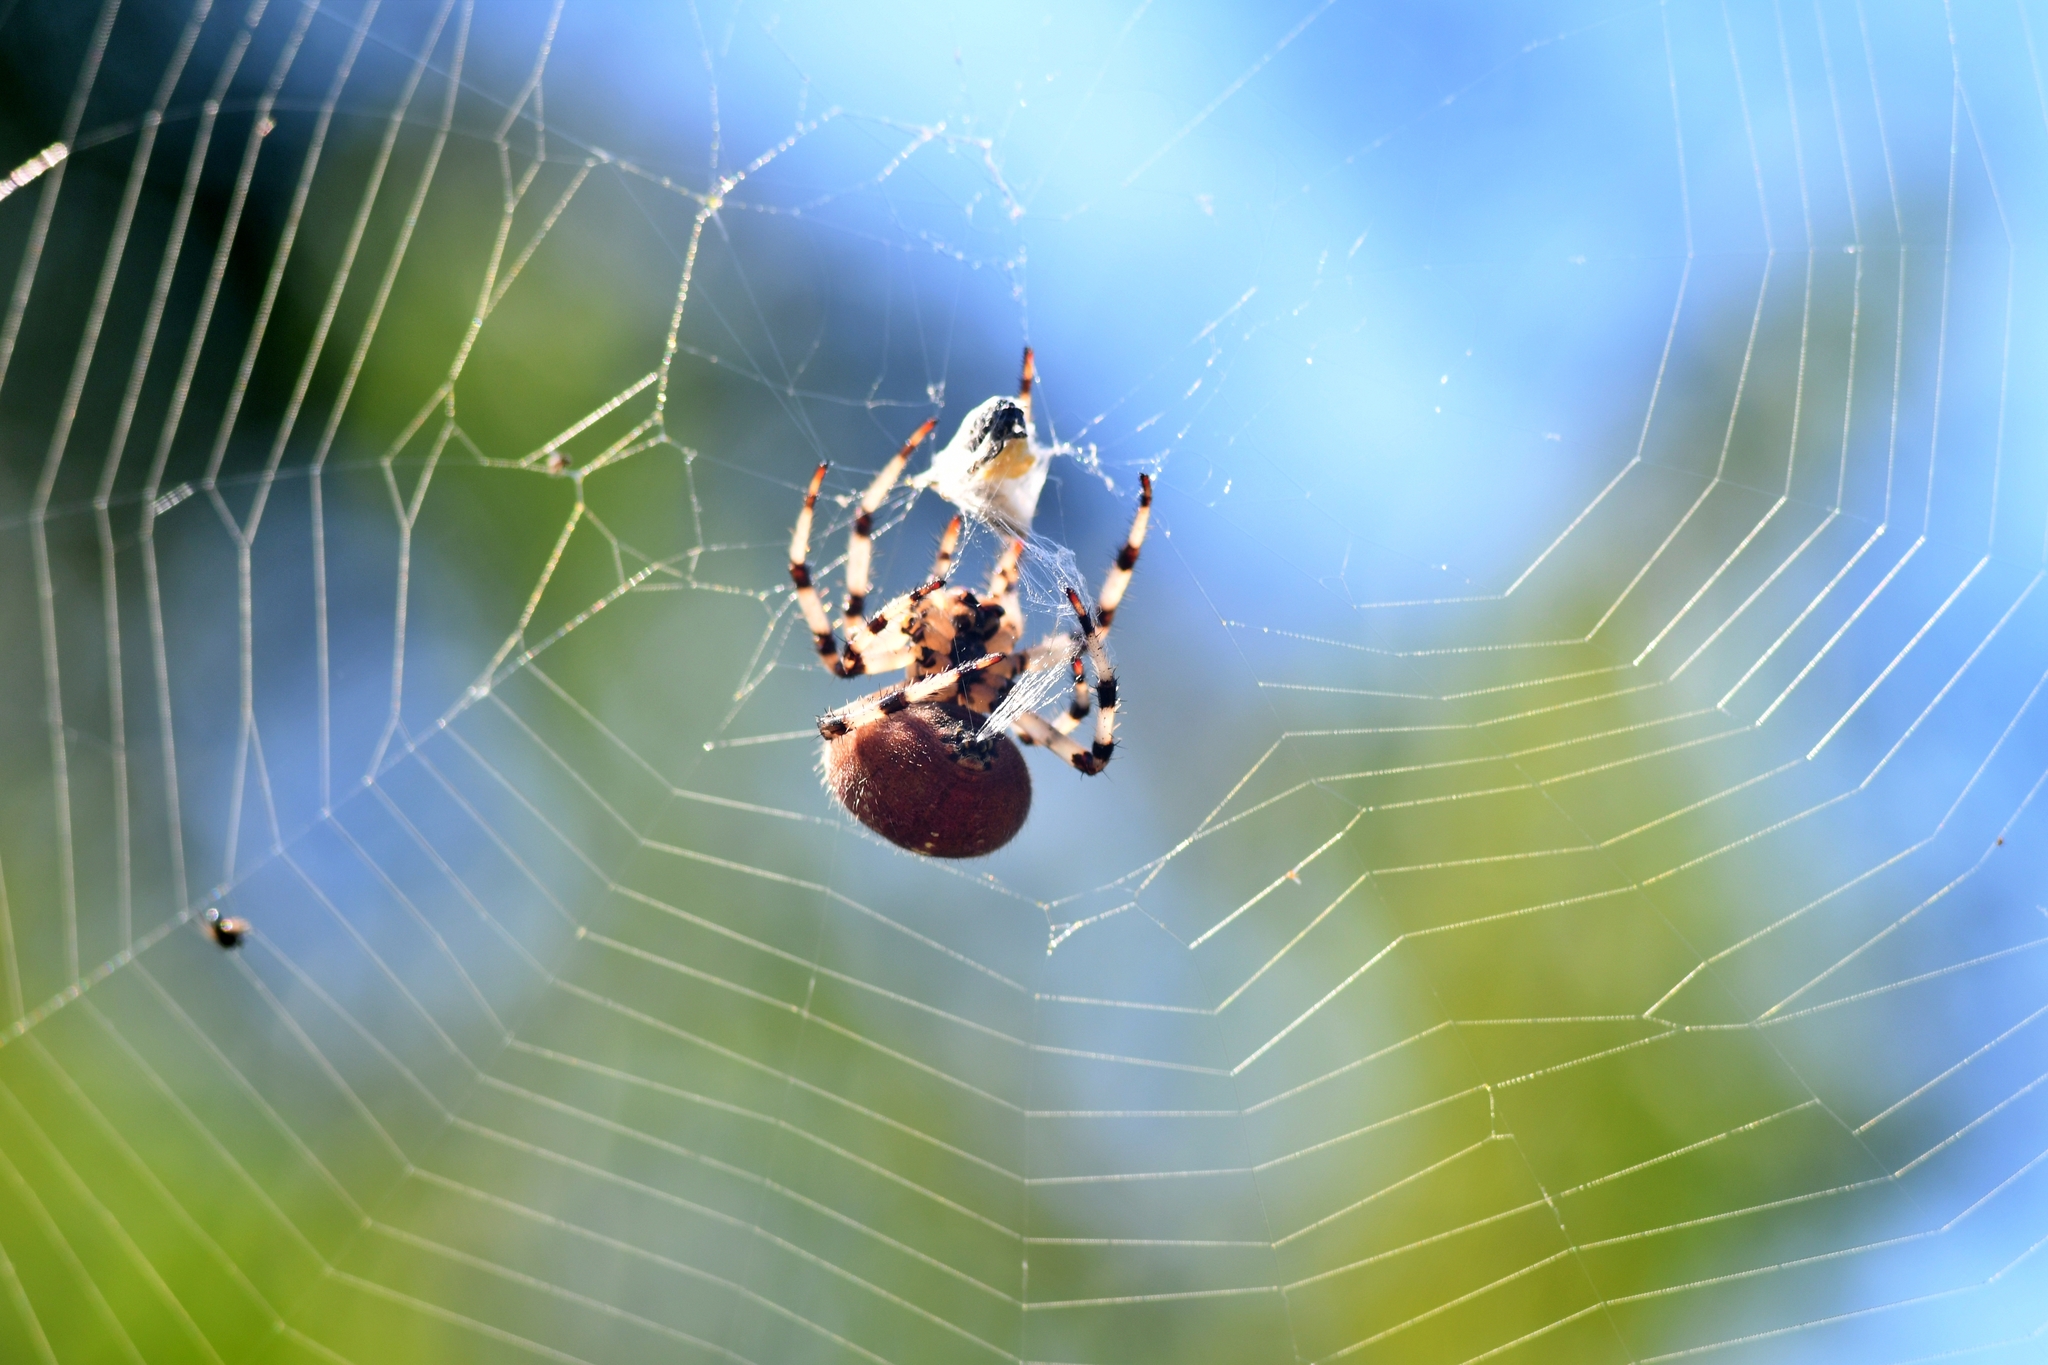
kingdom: Animalia
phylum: Arthropoda
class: Arachnida
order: Araneae
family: Araneidae
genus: Araneus
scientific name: Araneus quadratus
